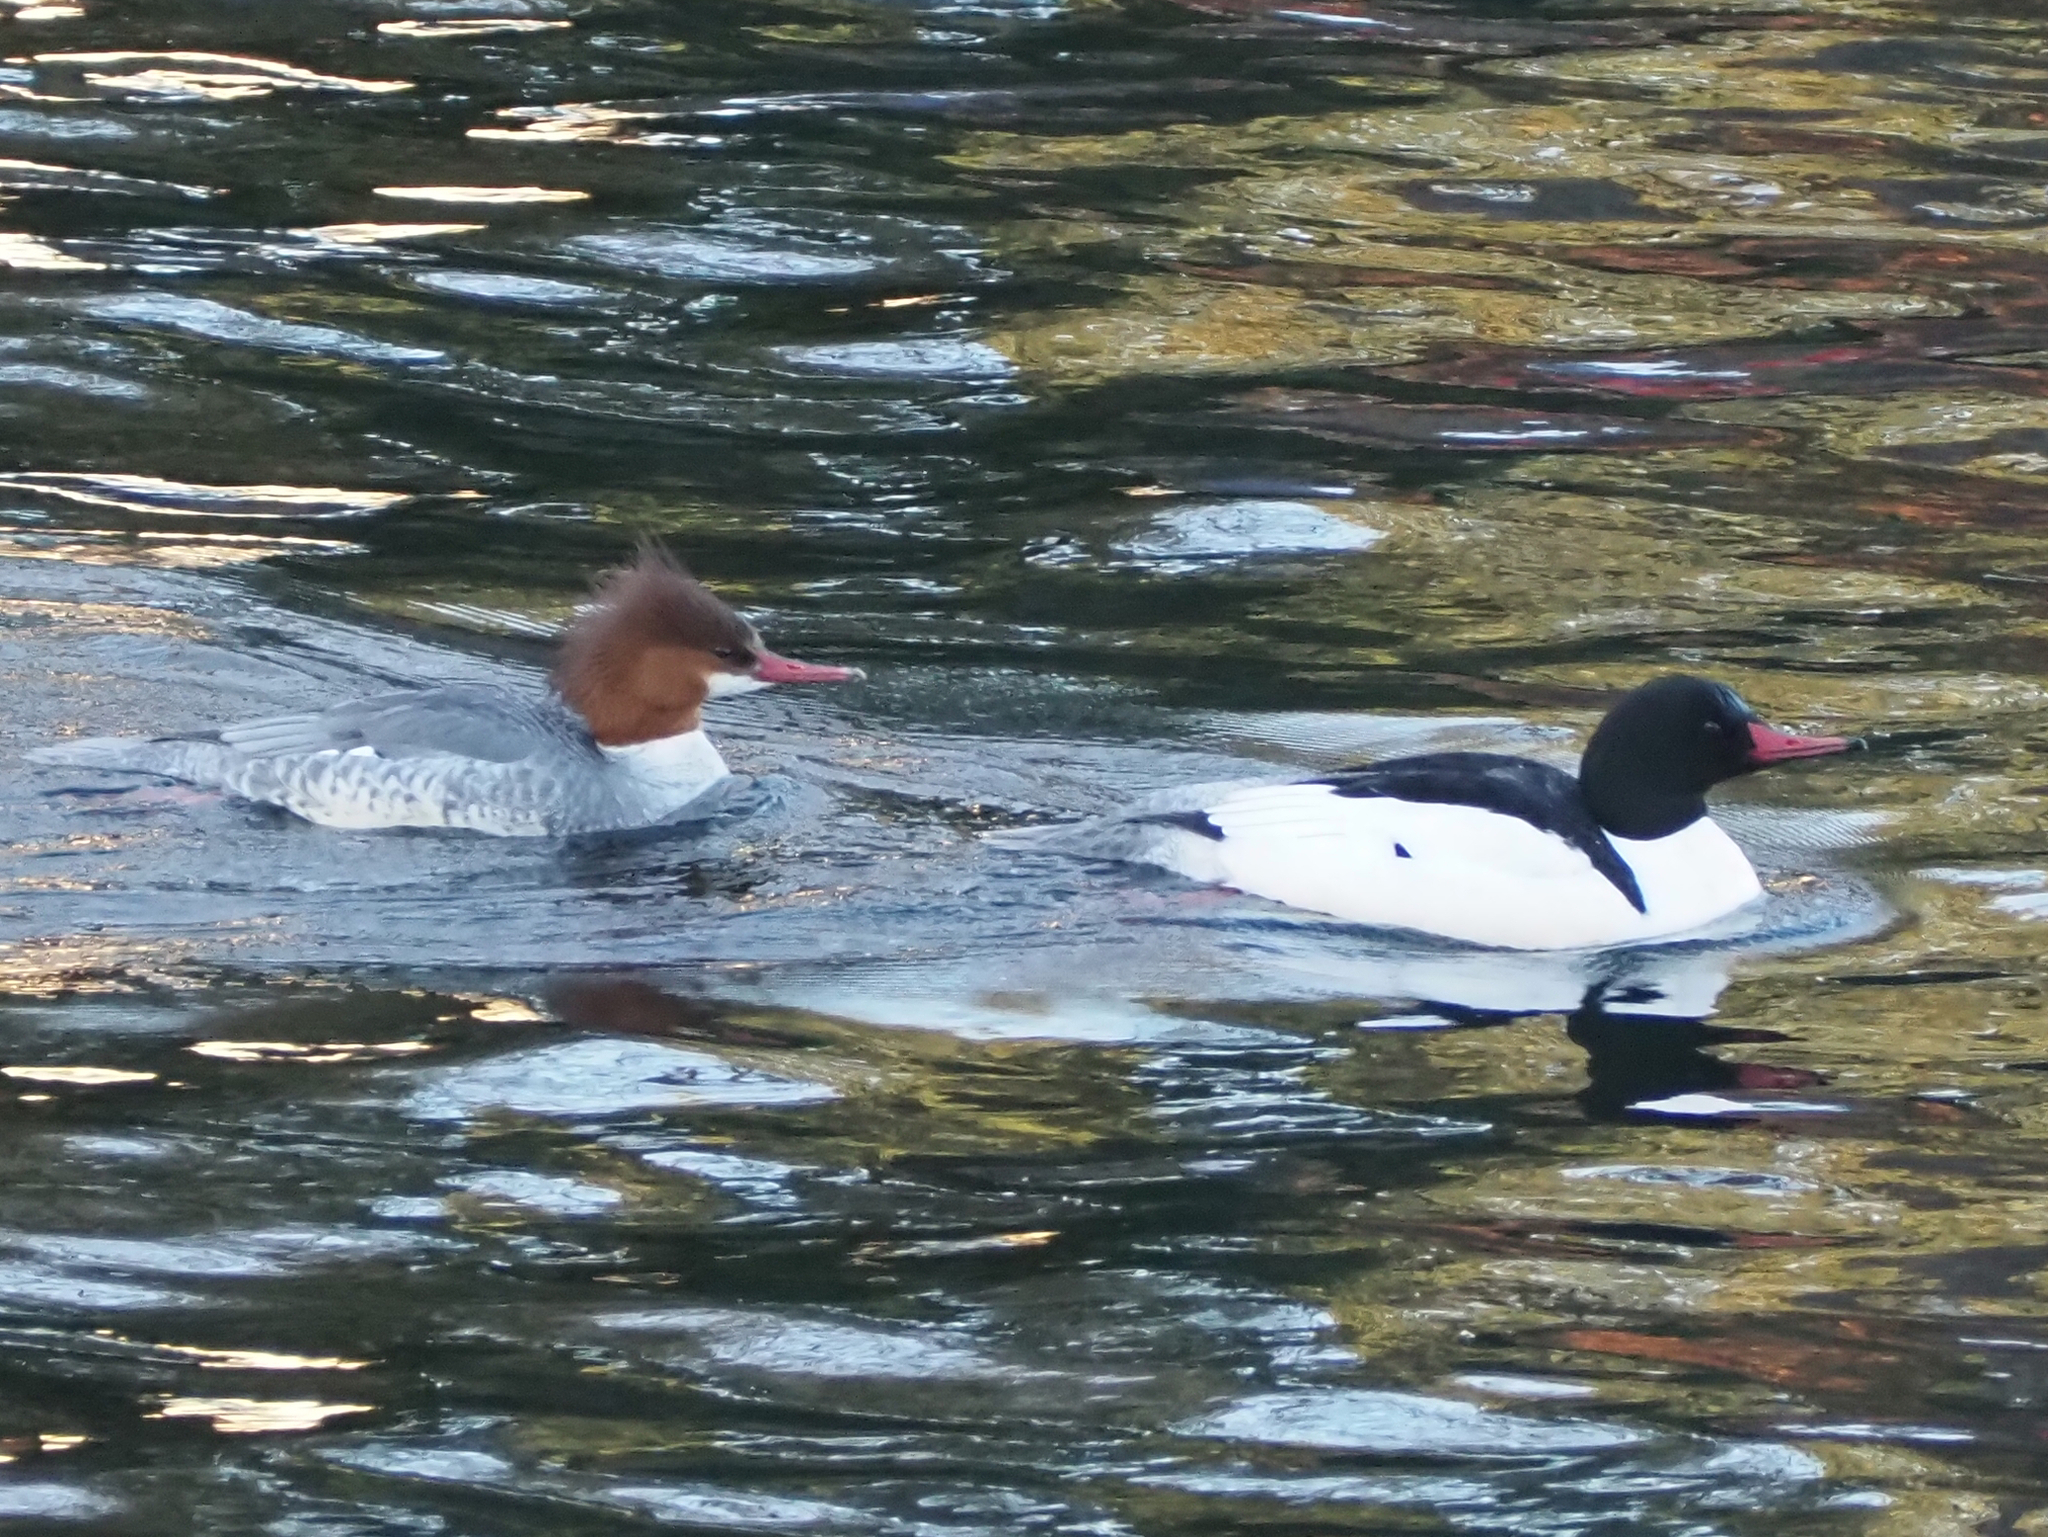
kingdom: Animalia
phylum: Chordata
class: Aves
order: Anseriformes
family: Anatidae
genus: Mergus
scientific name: Mergus merganser
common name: Common merganser
